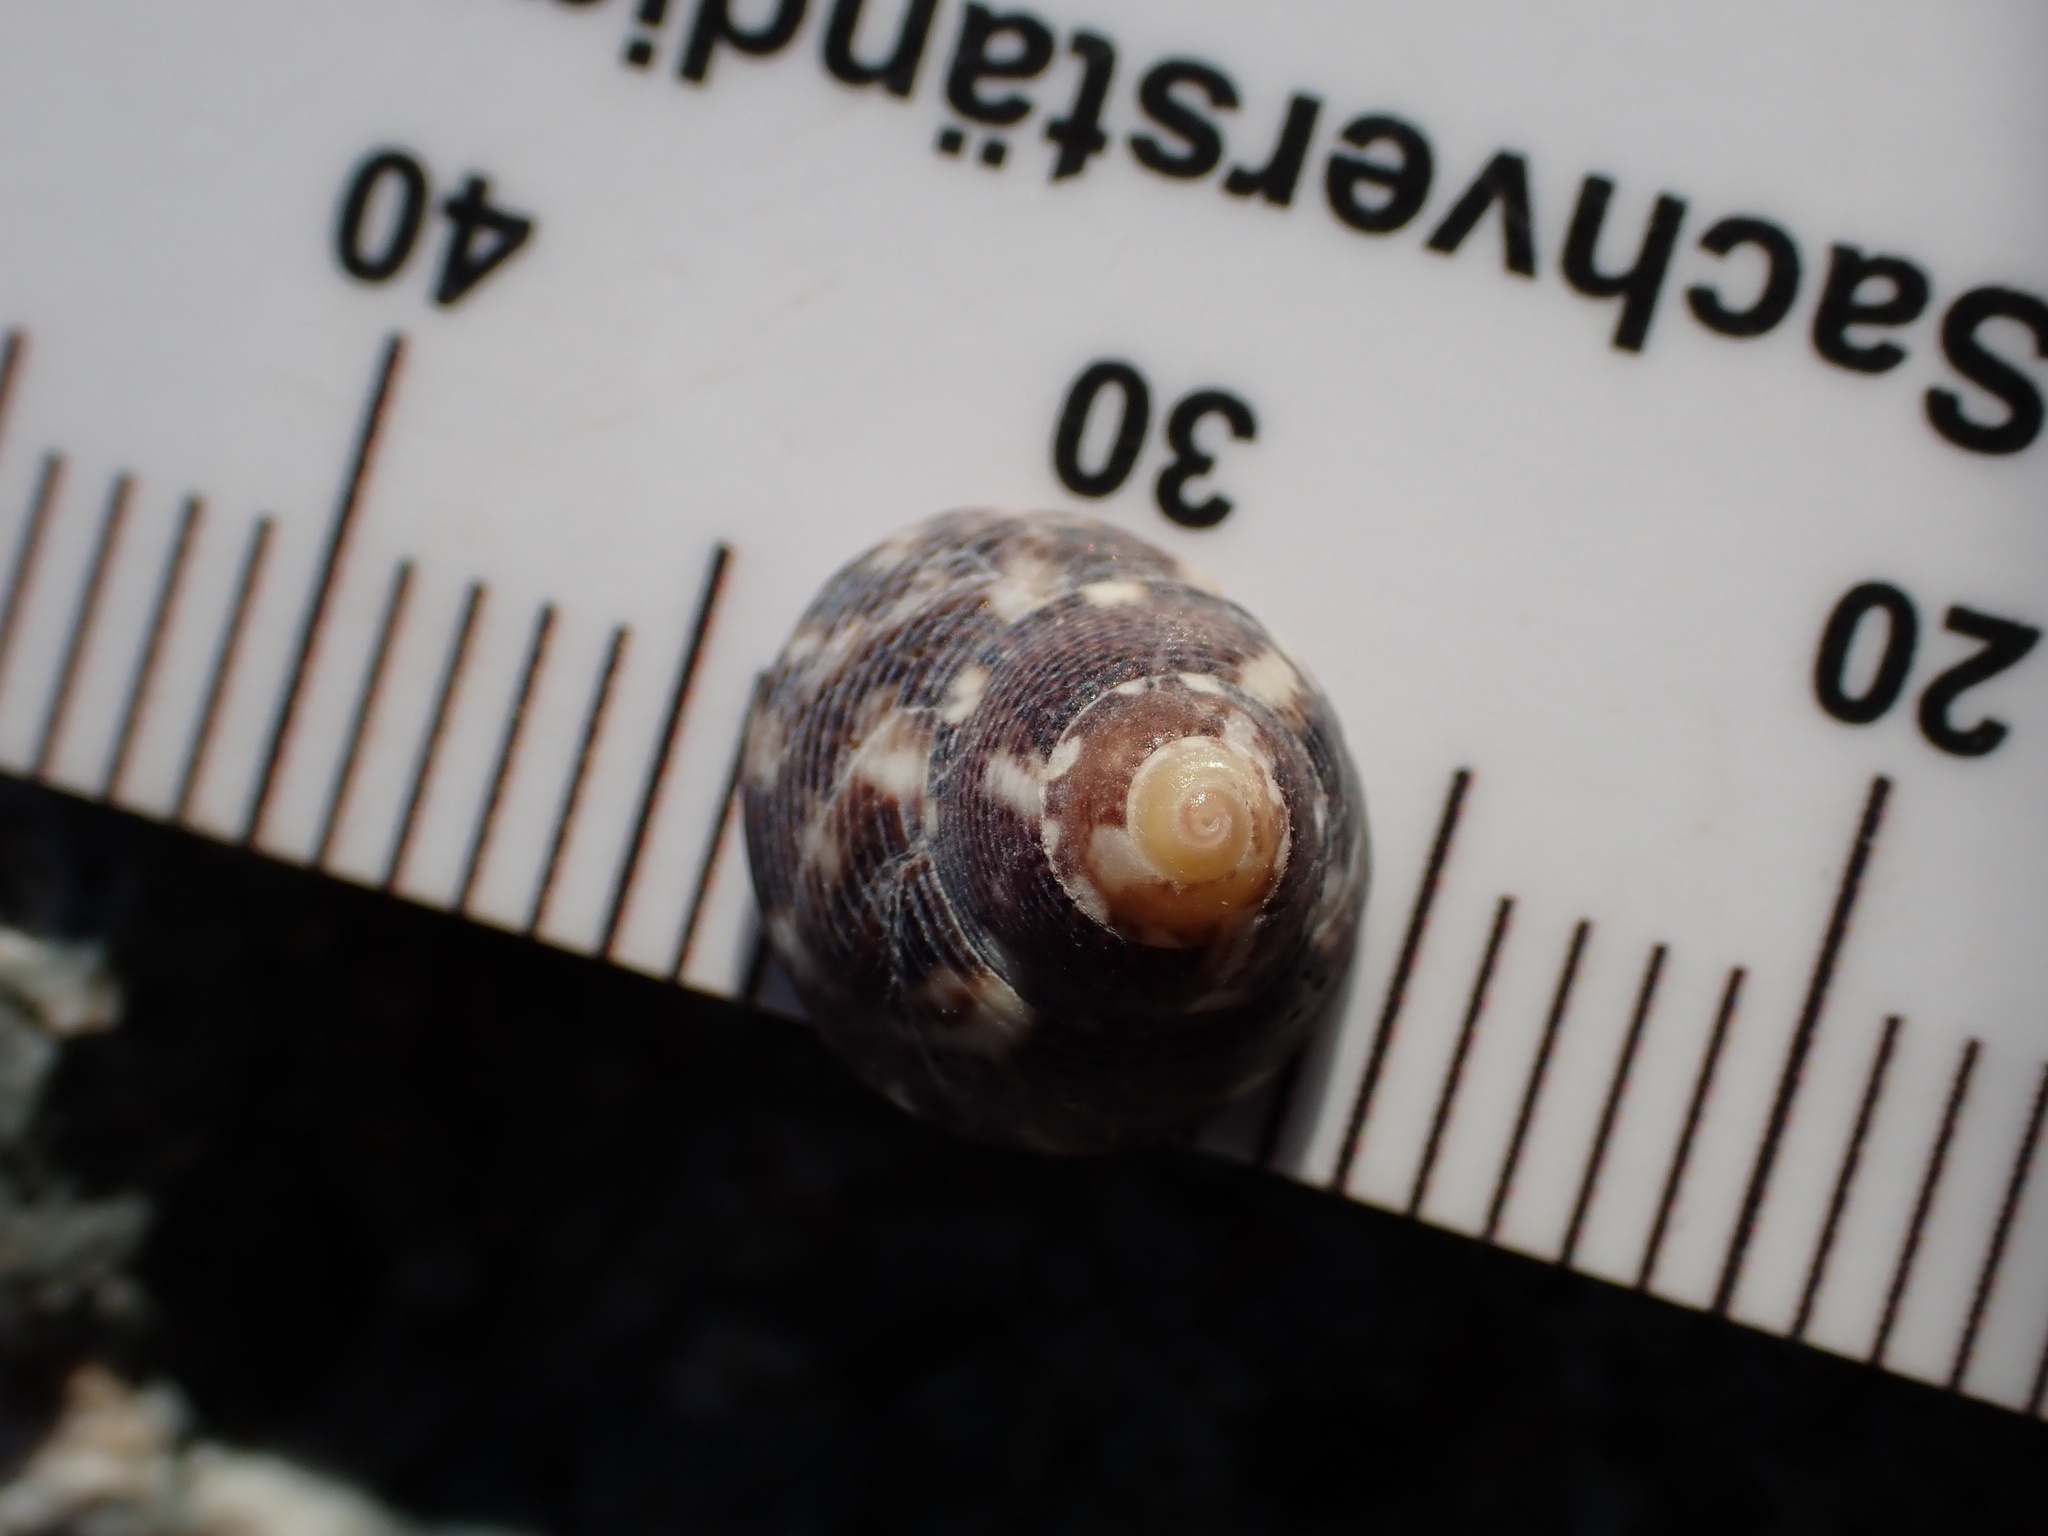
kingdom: Animalia
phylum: Mollusca
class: Gastropoda
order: Trochida
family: Trochidae
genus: Steromphala
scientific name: Steromphala varia
